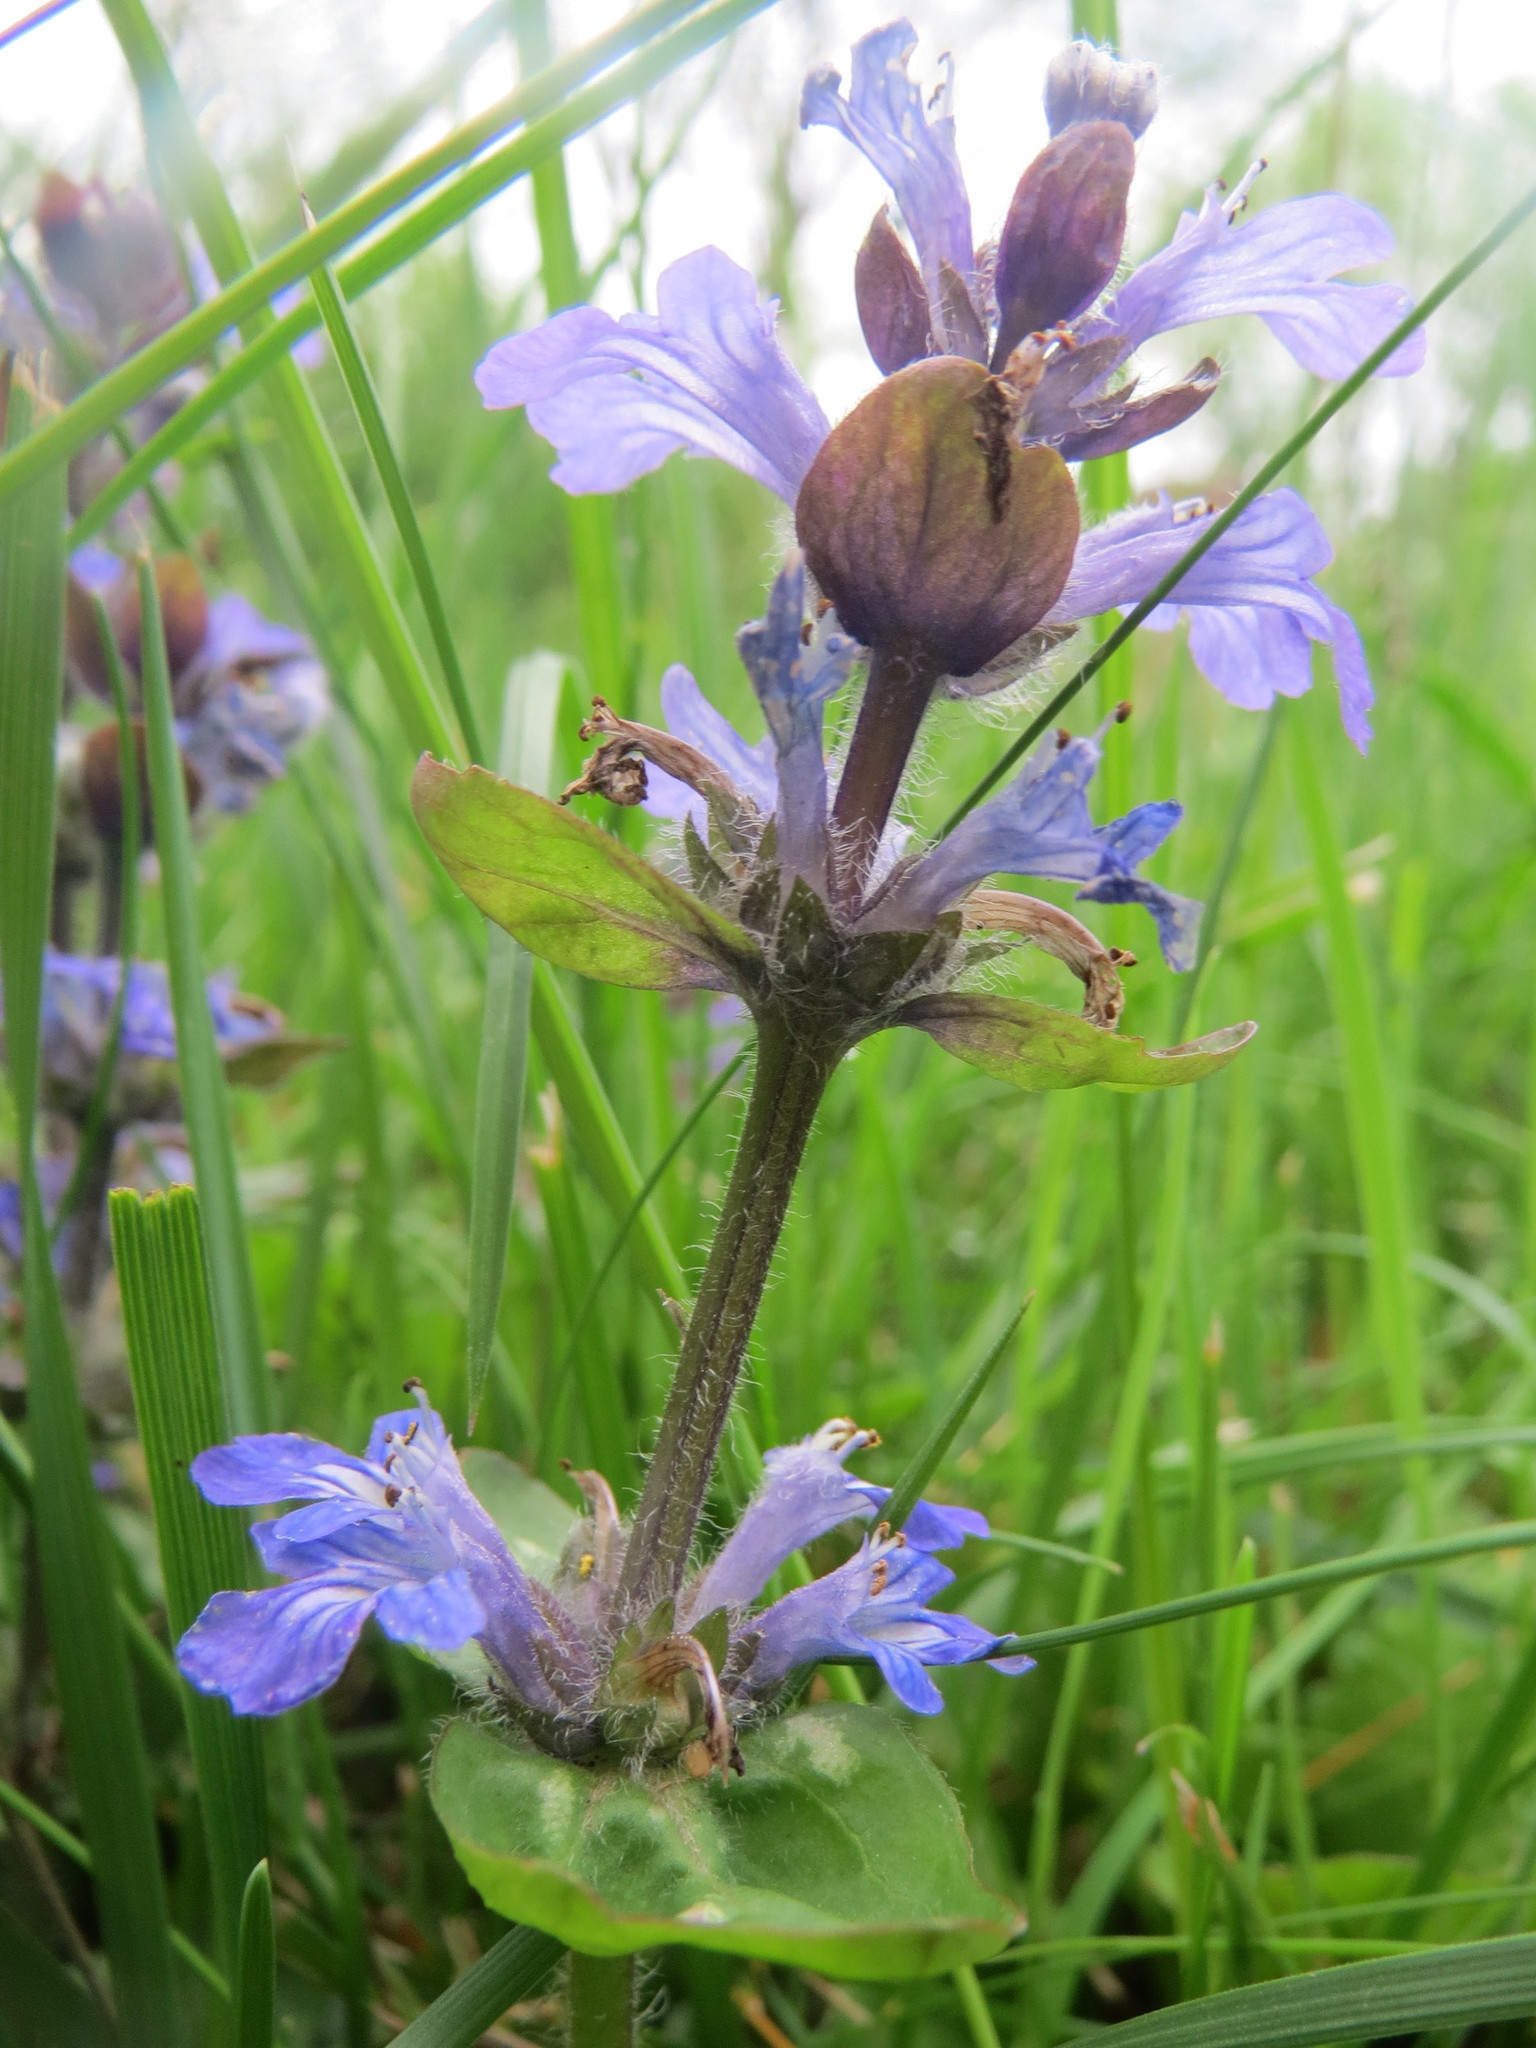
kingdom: Plantae
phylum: Tracheophyta
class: Magnoliopsida
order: Lamiales
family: Lamiaceae
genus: Ajuga
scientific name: Ajuga reptans
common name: Bugle
